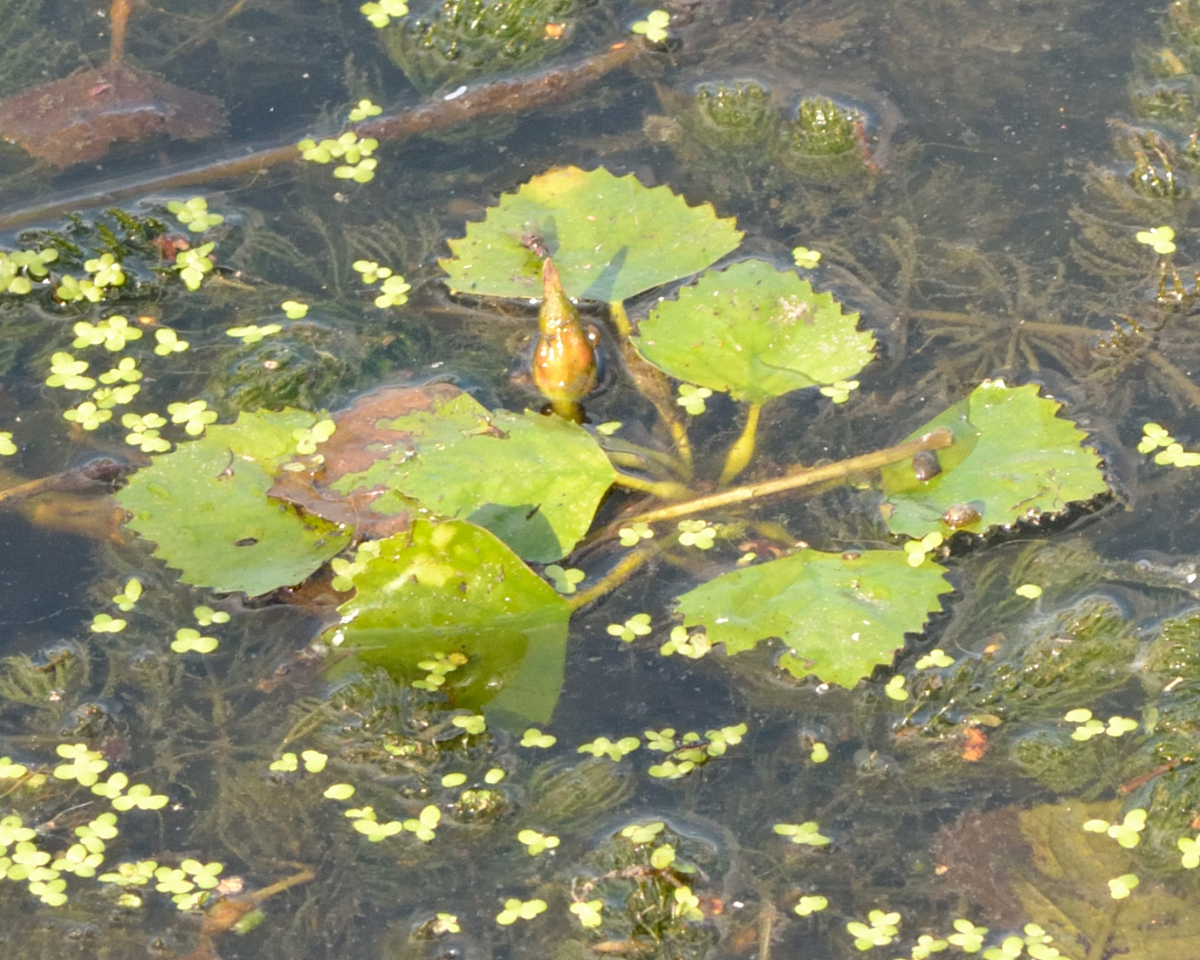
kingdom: Plantae
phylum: Tracheophyta
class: Magnoliopsida
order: Myrtales
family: Lythraceae
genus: Trapa
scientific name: Trapa natans
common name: Water chestnut
